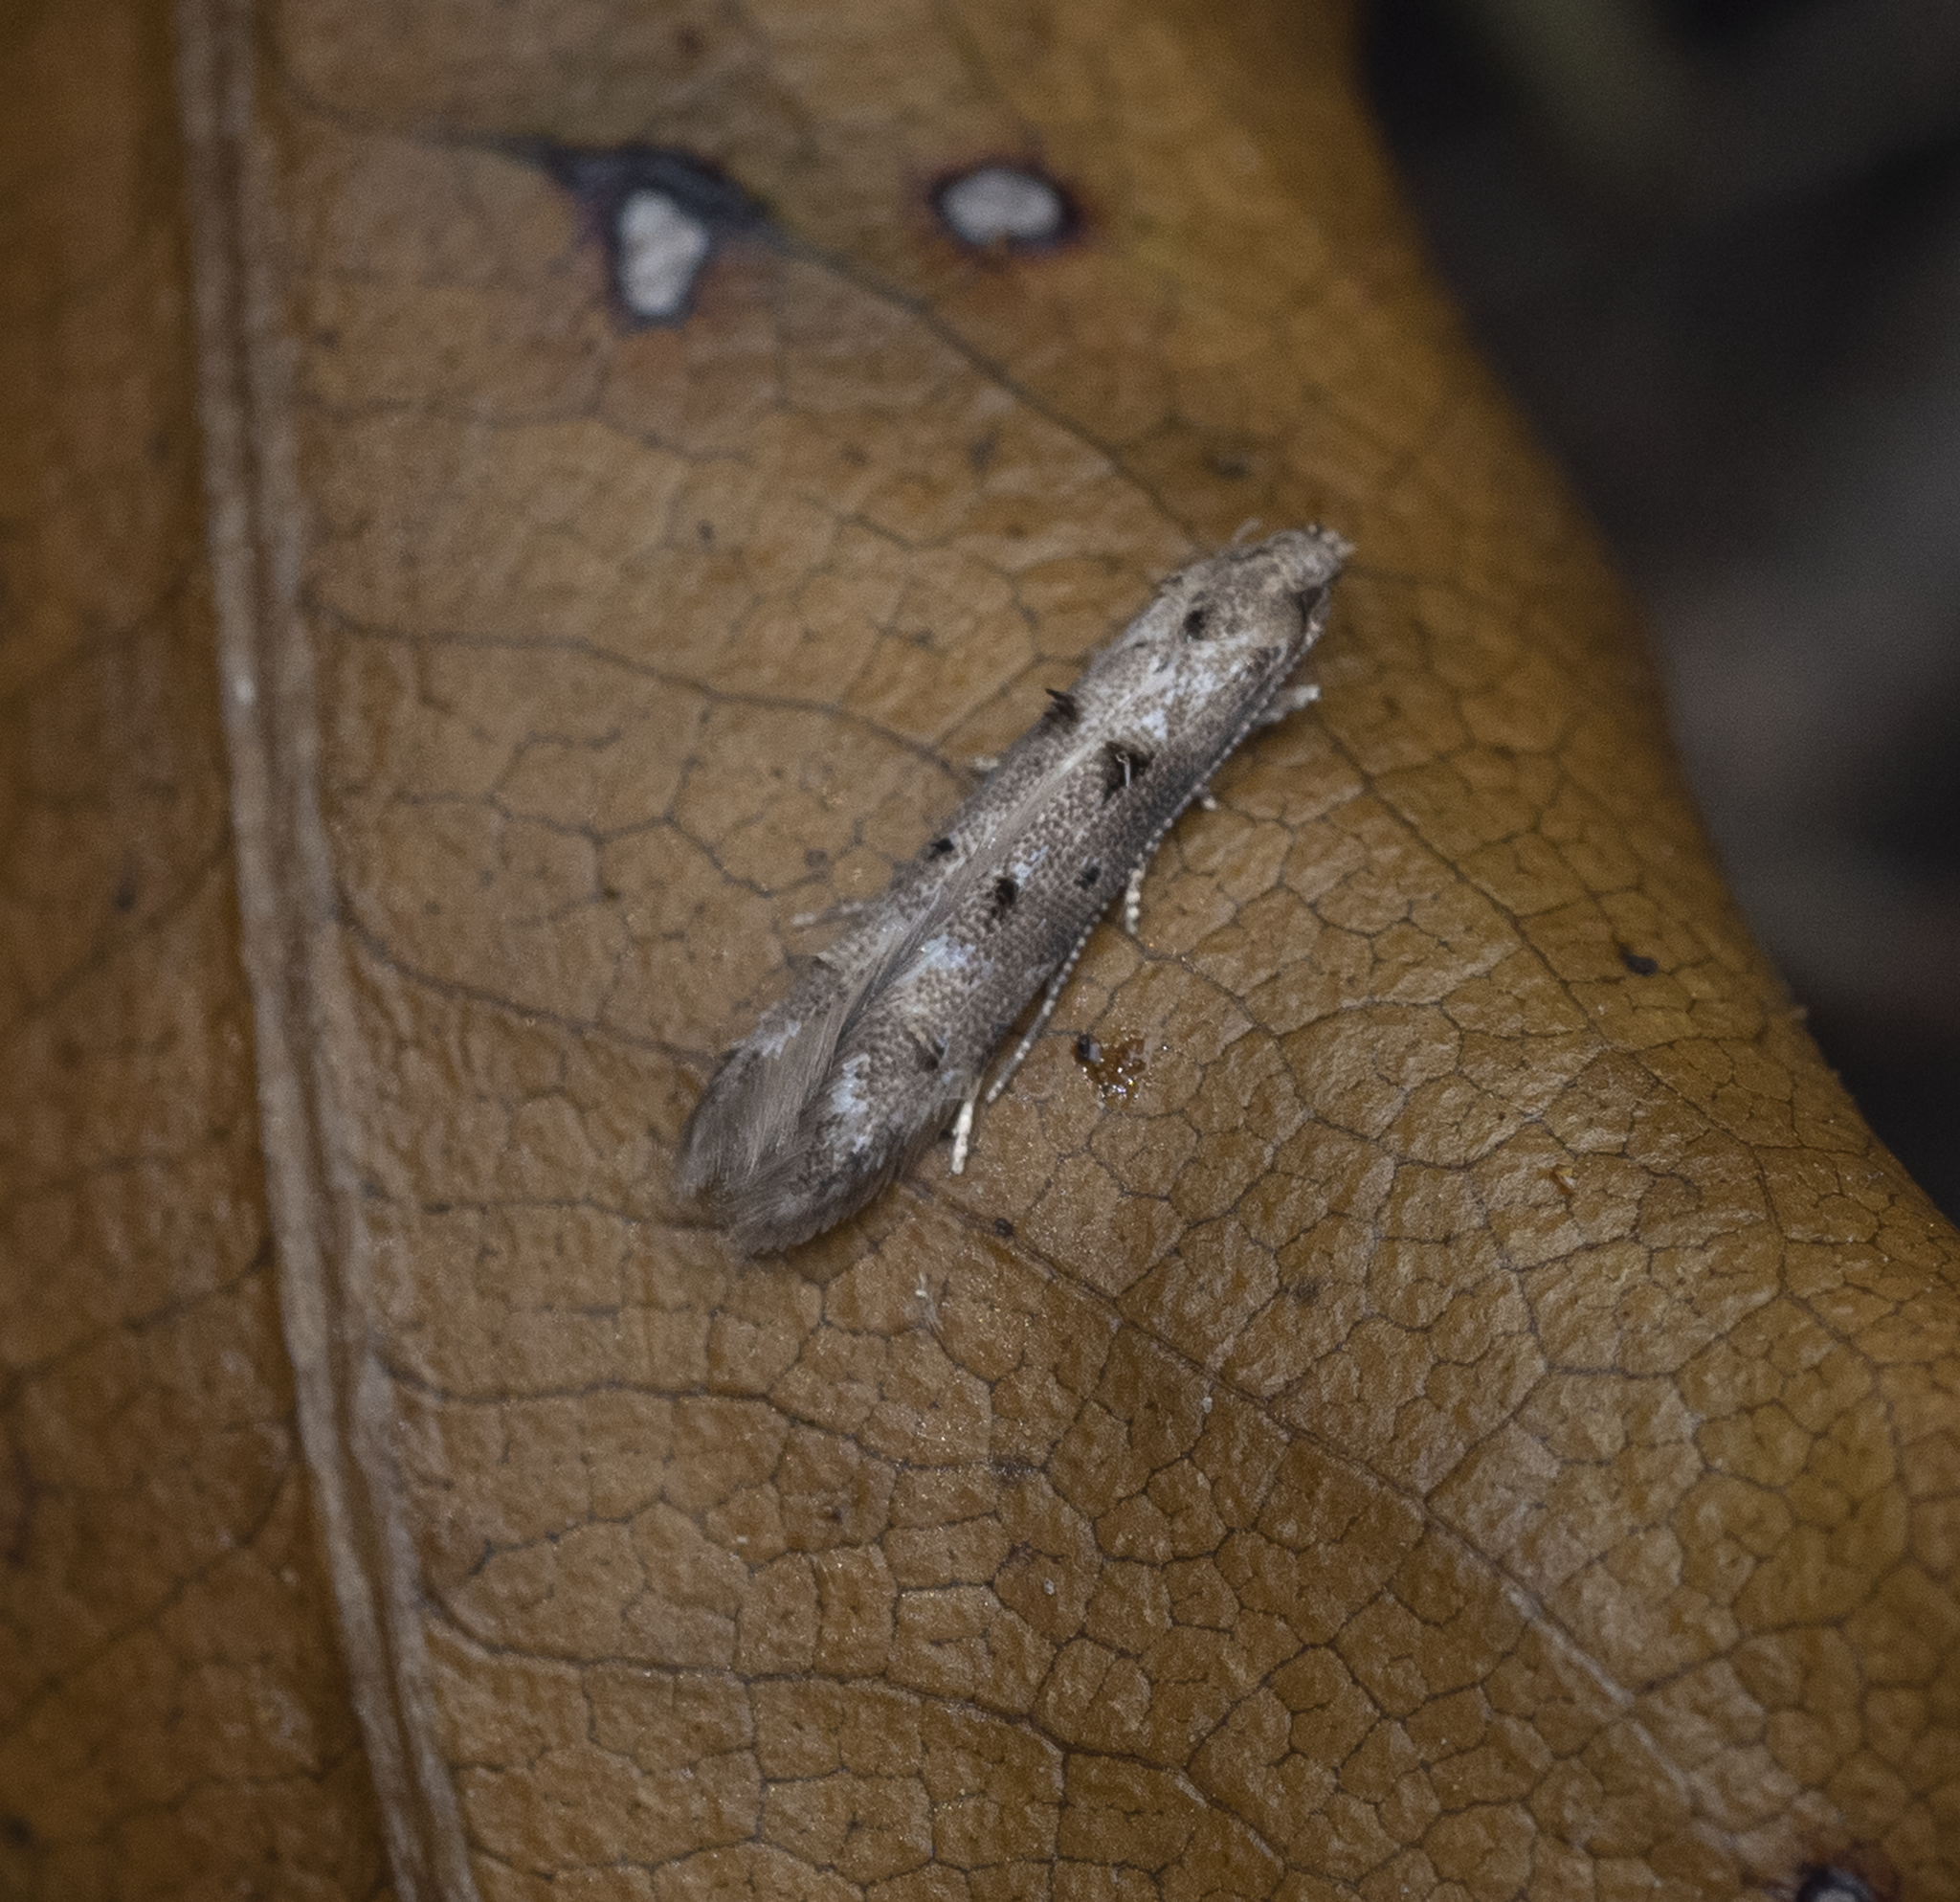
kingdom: Animalia
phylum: Arthropoda
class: Insecta
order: Lepidoptera
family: Elachistidae
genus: Microcolona
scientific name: Microcolona limodes
